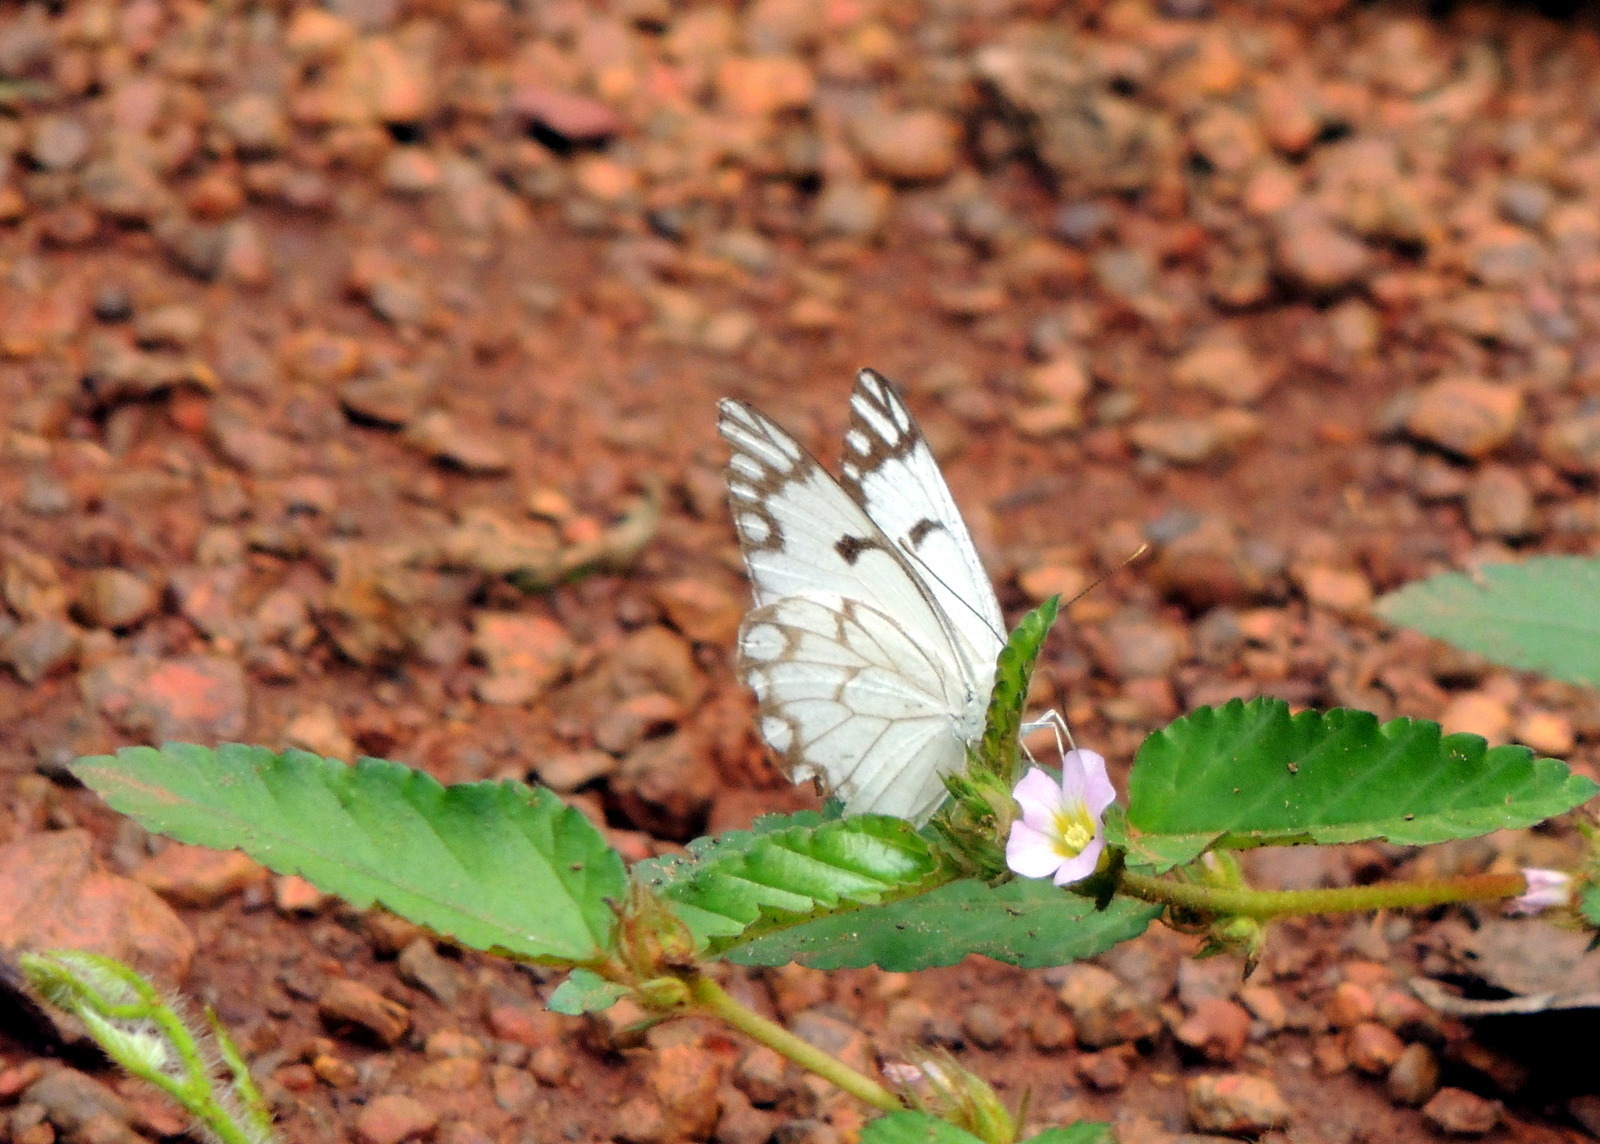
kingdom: Plantae
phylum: Tracheophyta
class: Magnoliopsida
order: Malvales
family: Malvaceae
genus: Melochia
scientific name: Melochia melissifolia
